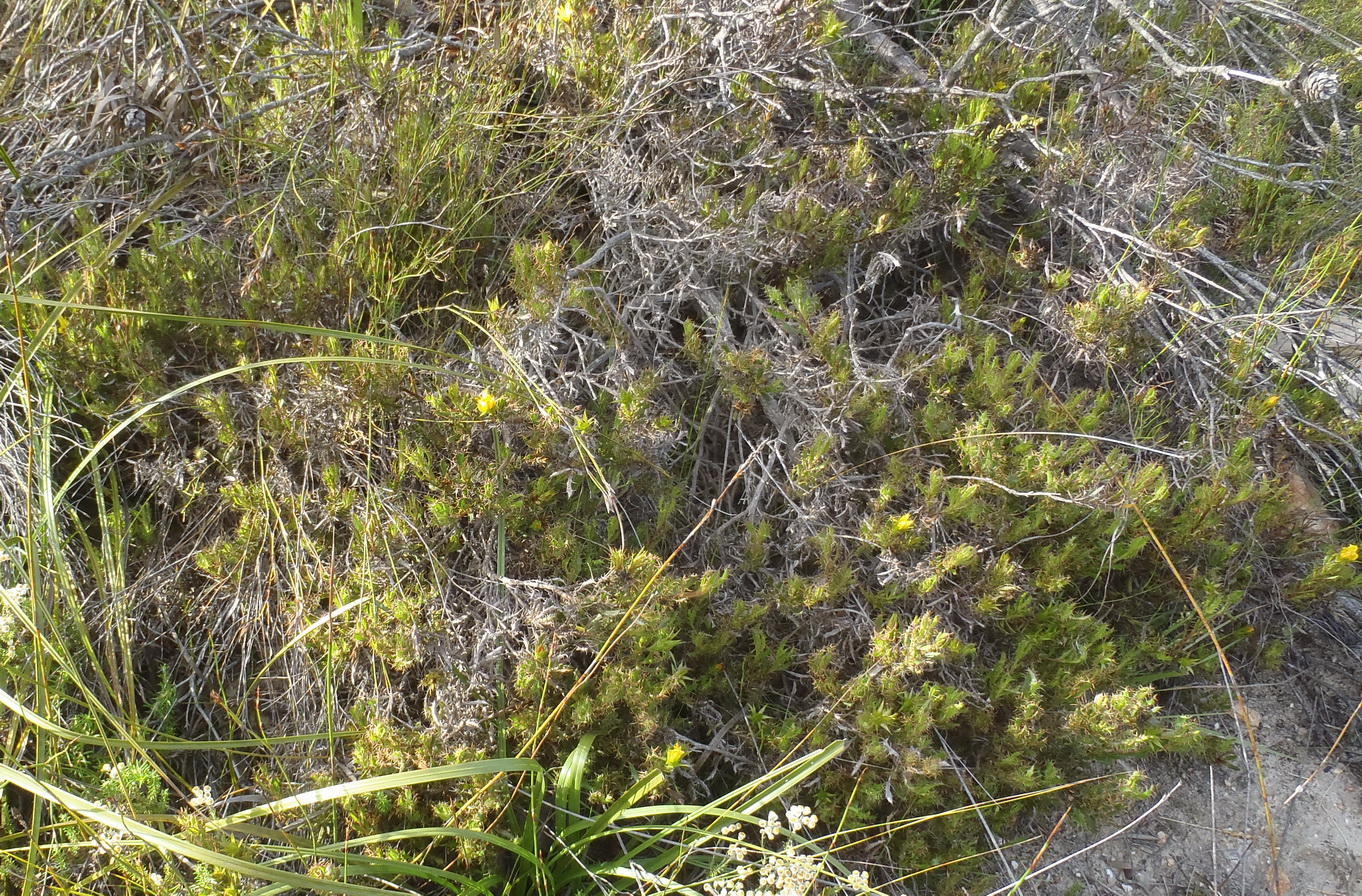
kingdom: Plantae
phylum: Tracheophyta
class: Magnoliopsida
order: Asterales
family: Asteraceae
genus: Cullumia
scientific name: Cullumia aculeata
